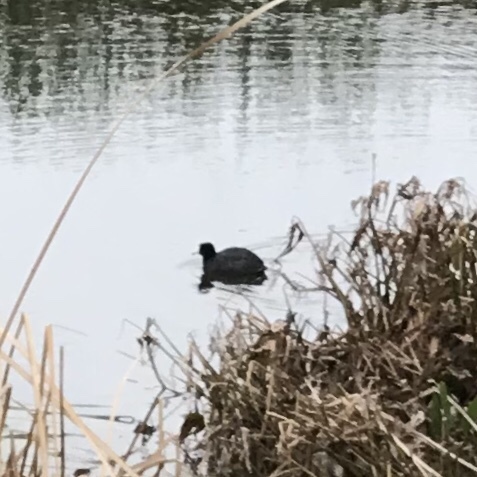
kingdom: Animalia
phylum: Chordata
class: Aves
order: Gruiformes
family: Rallidae
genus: Fulica
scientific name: Fulica americana
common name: American coot
